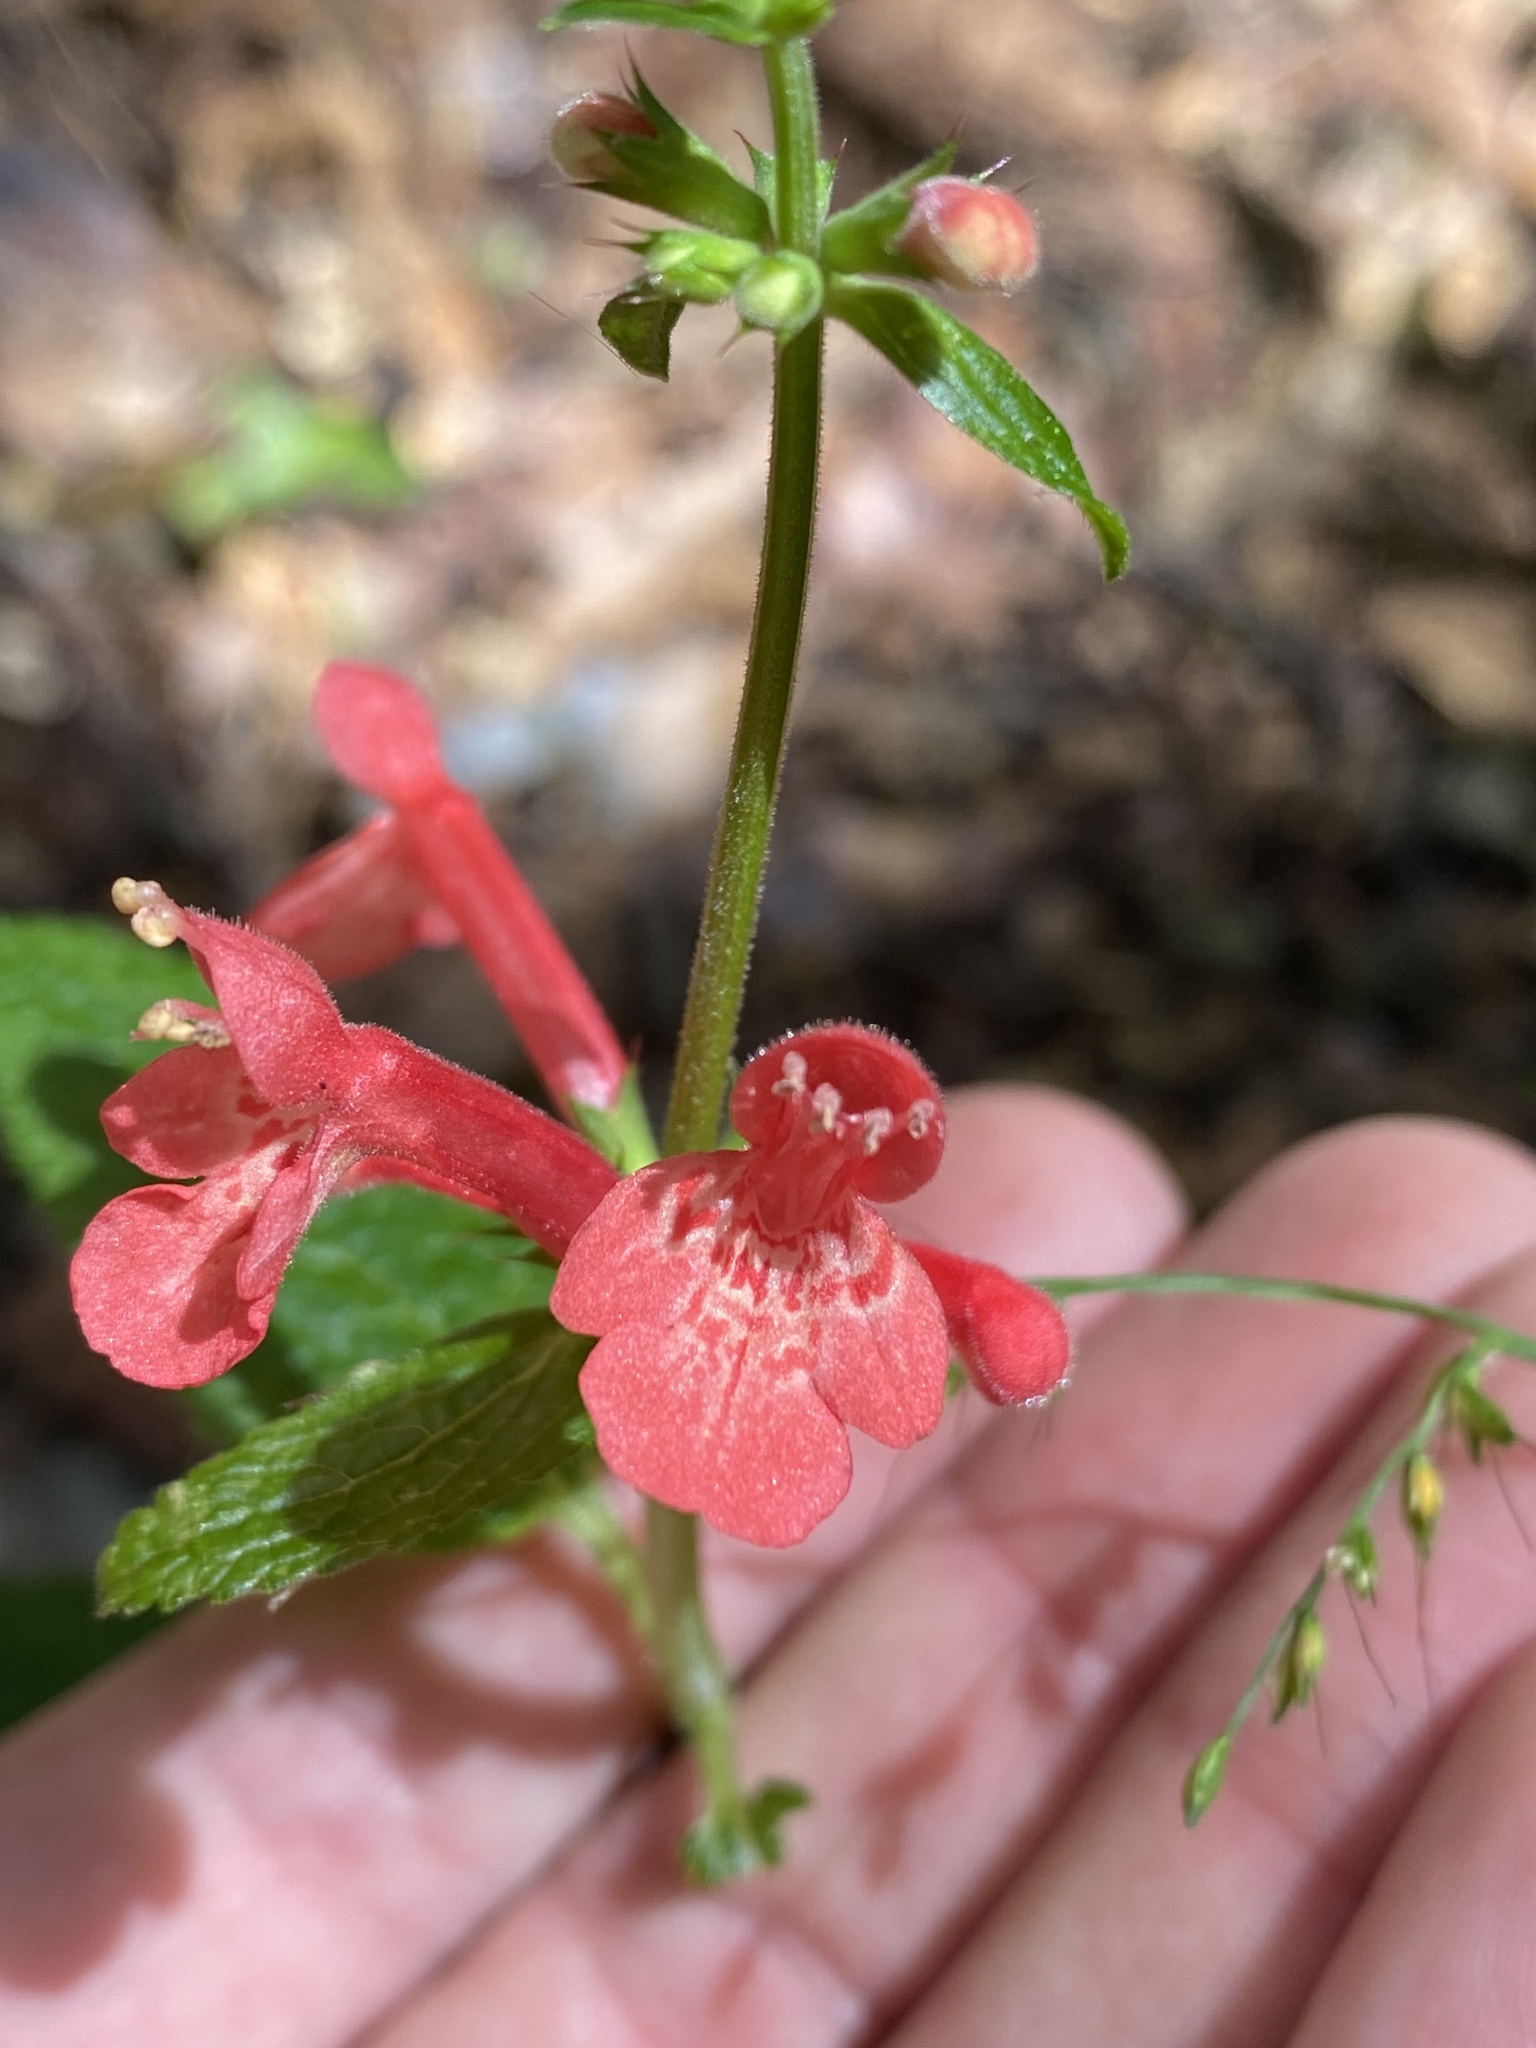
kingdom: Plantae
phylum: Tracheophyta
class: Magnoliopsida
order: Lamiales
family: Lamiaceae
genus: Stachys
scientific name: Stachys coccinea
